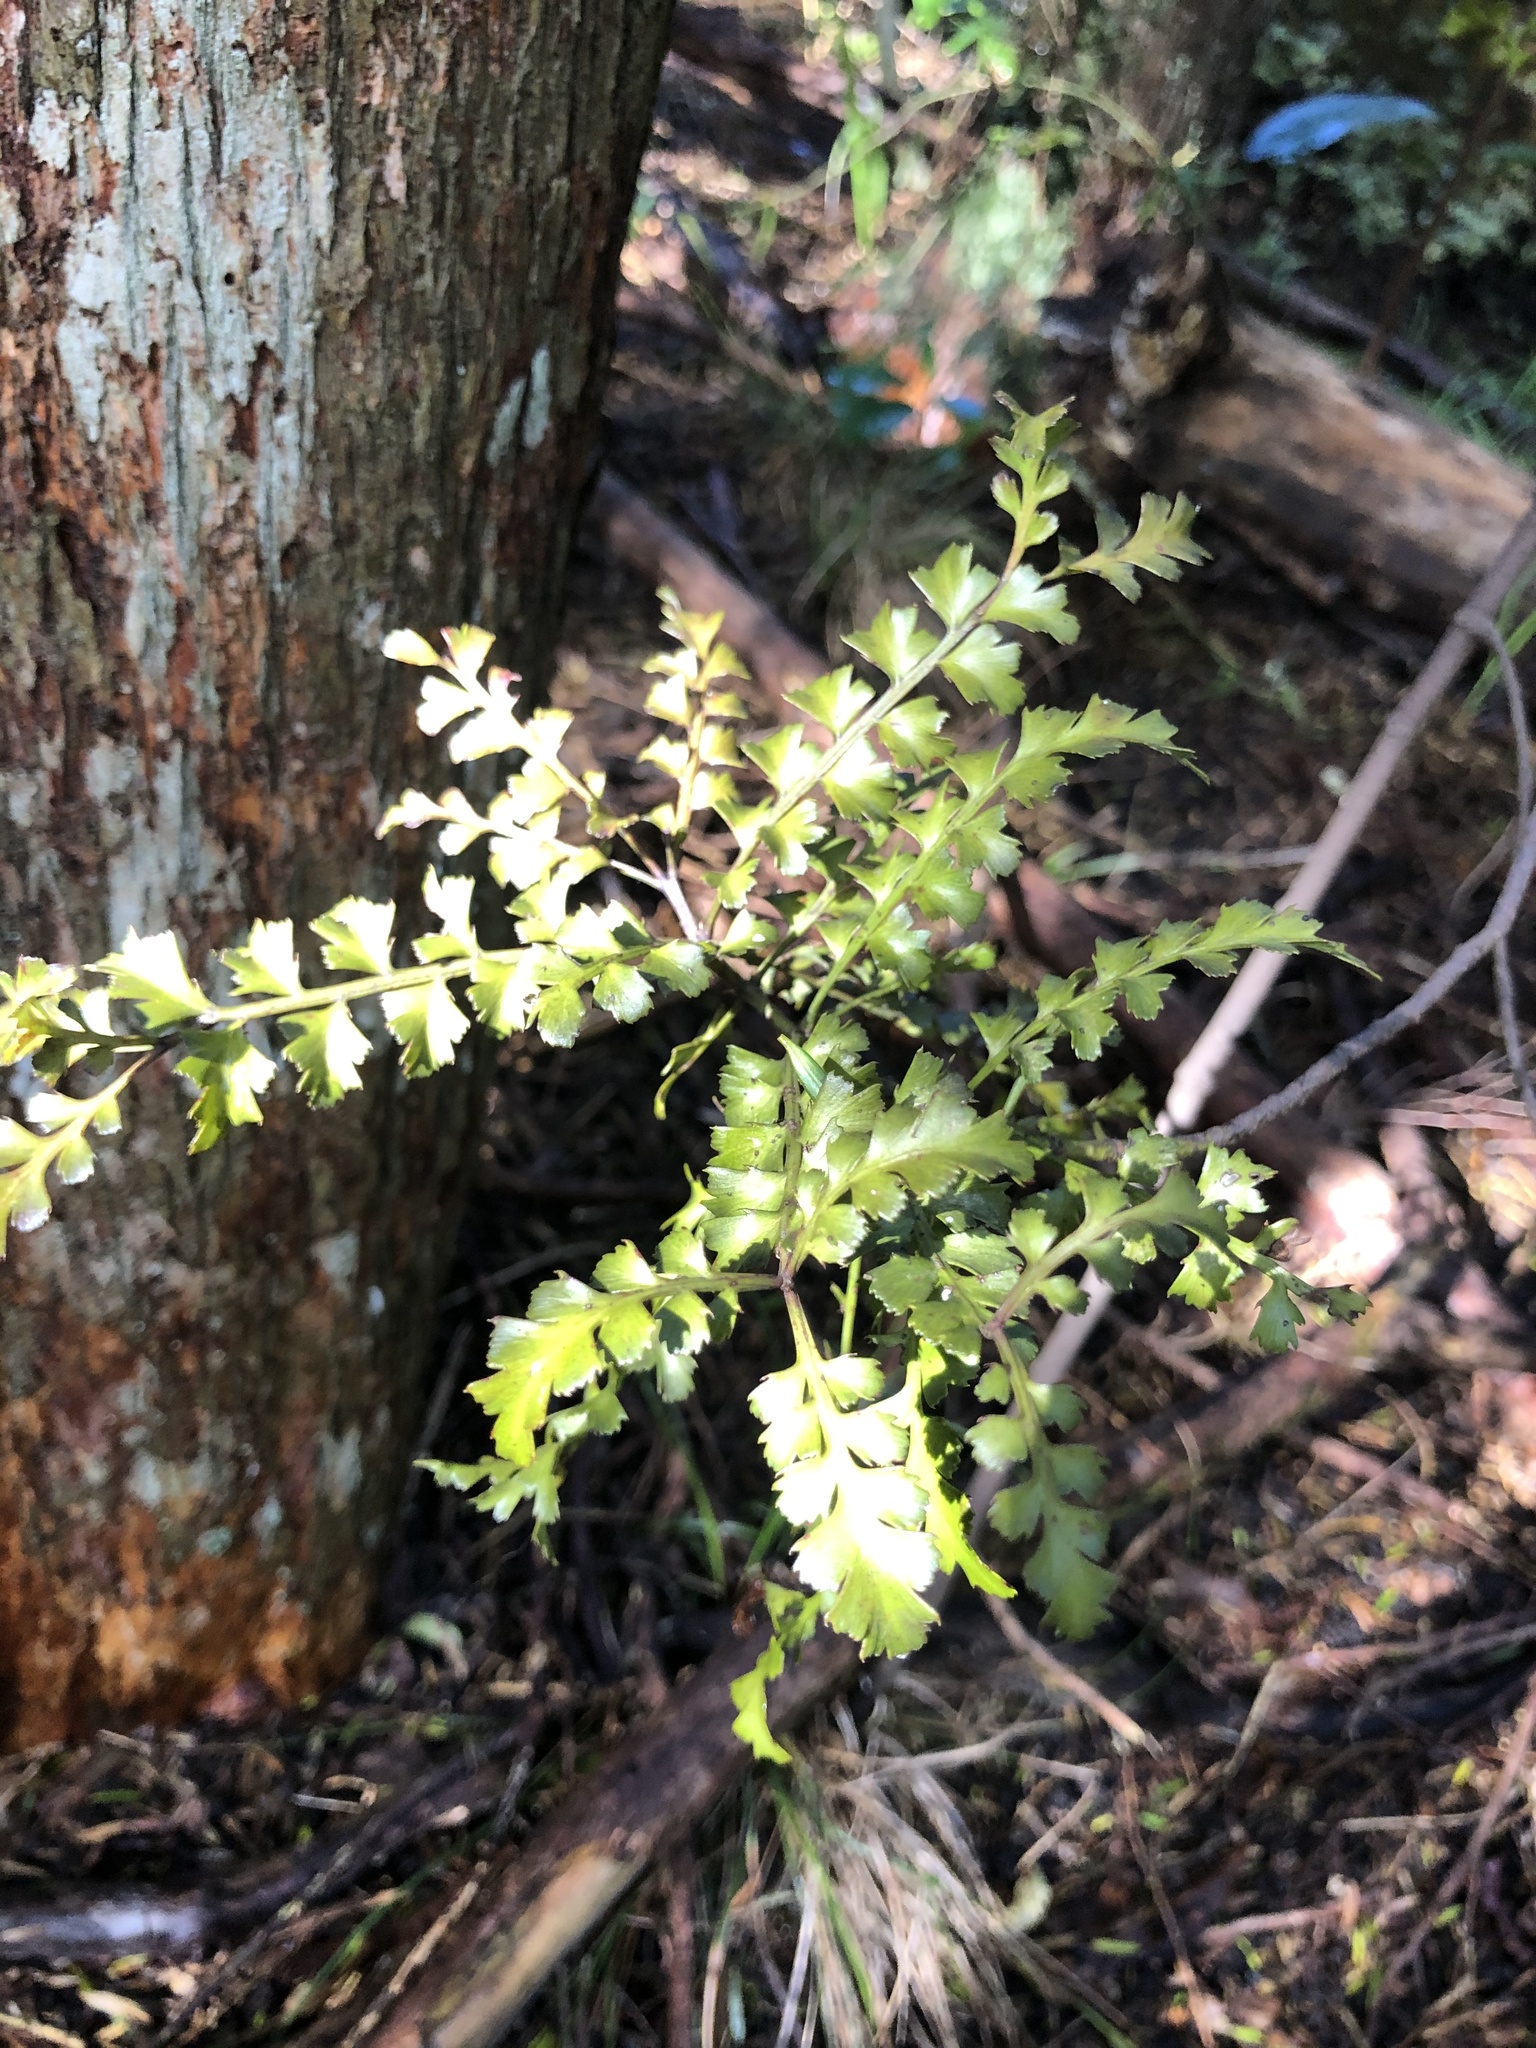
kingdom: Plantae
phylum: Tracheophyta
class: Pinopsida
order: Pinales
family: Phyllocladaceae
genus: Phyllocladus
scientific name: Phyllocladus trichomanoides
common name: Celery pine
